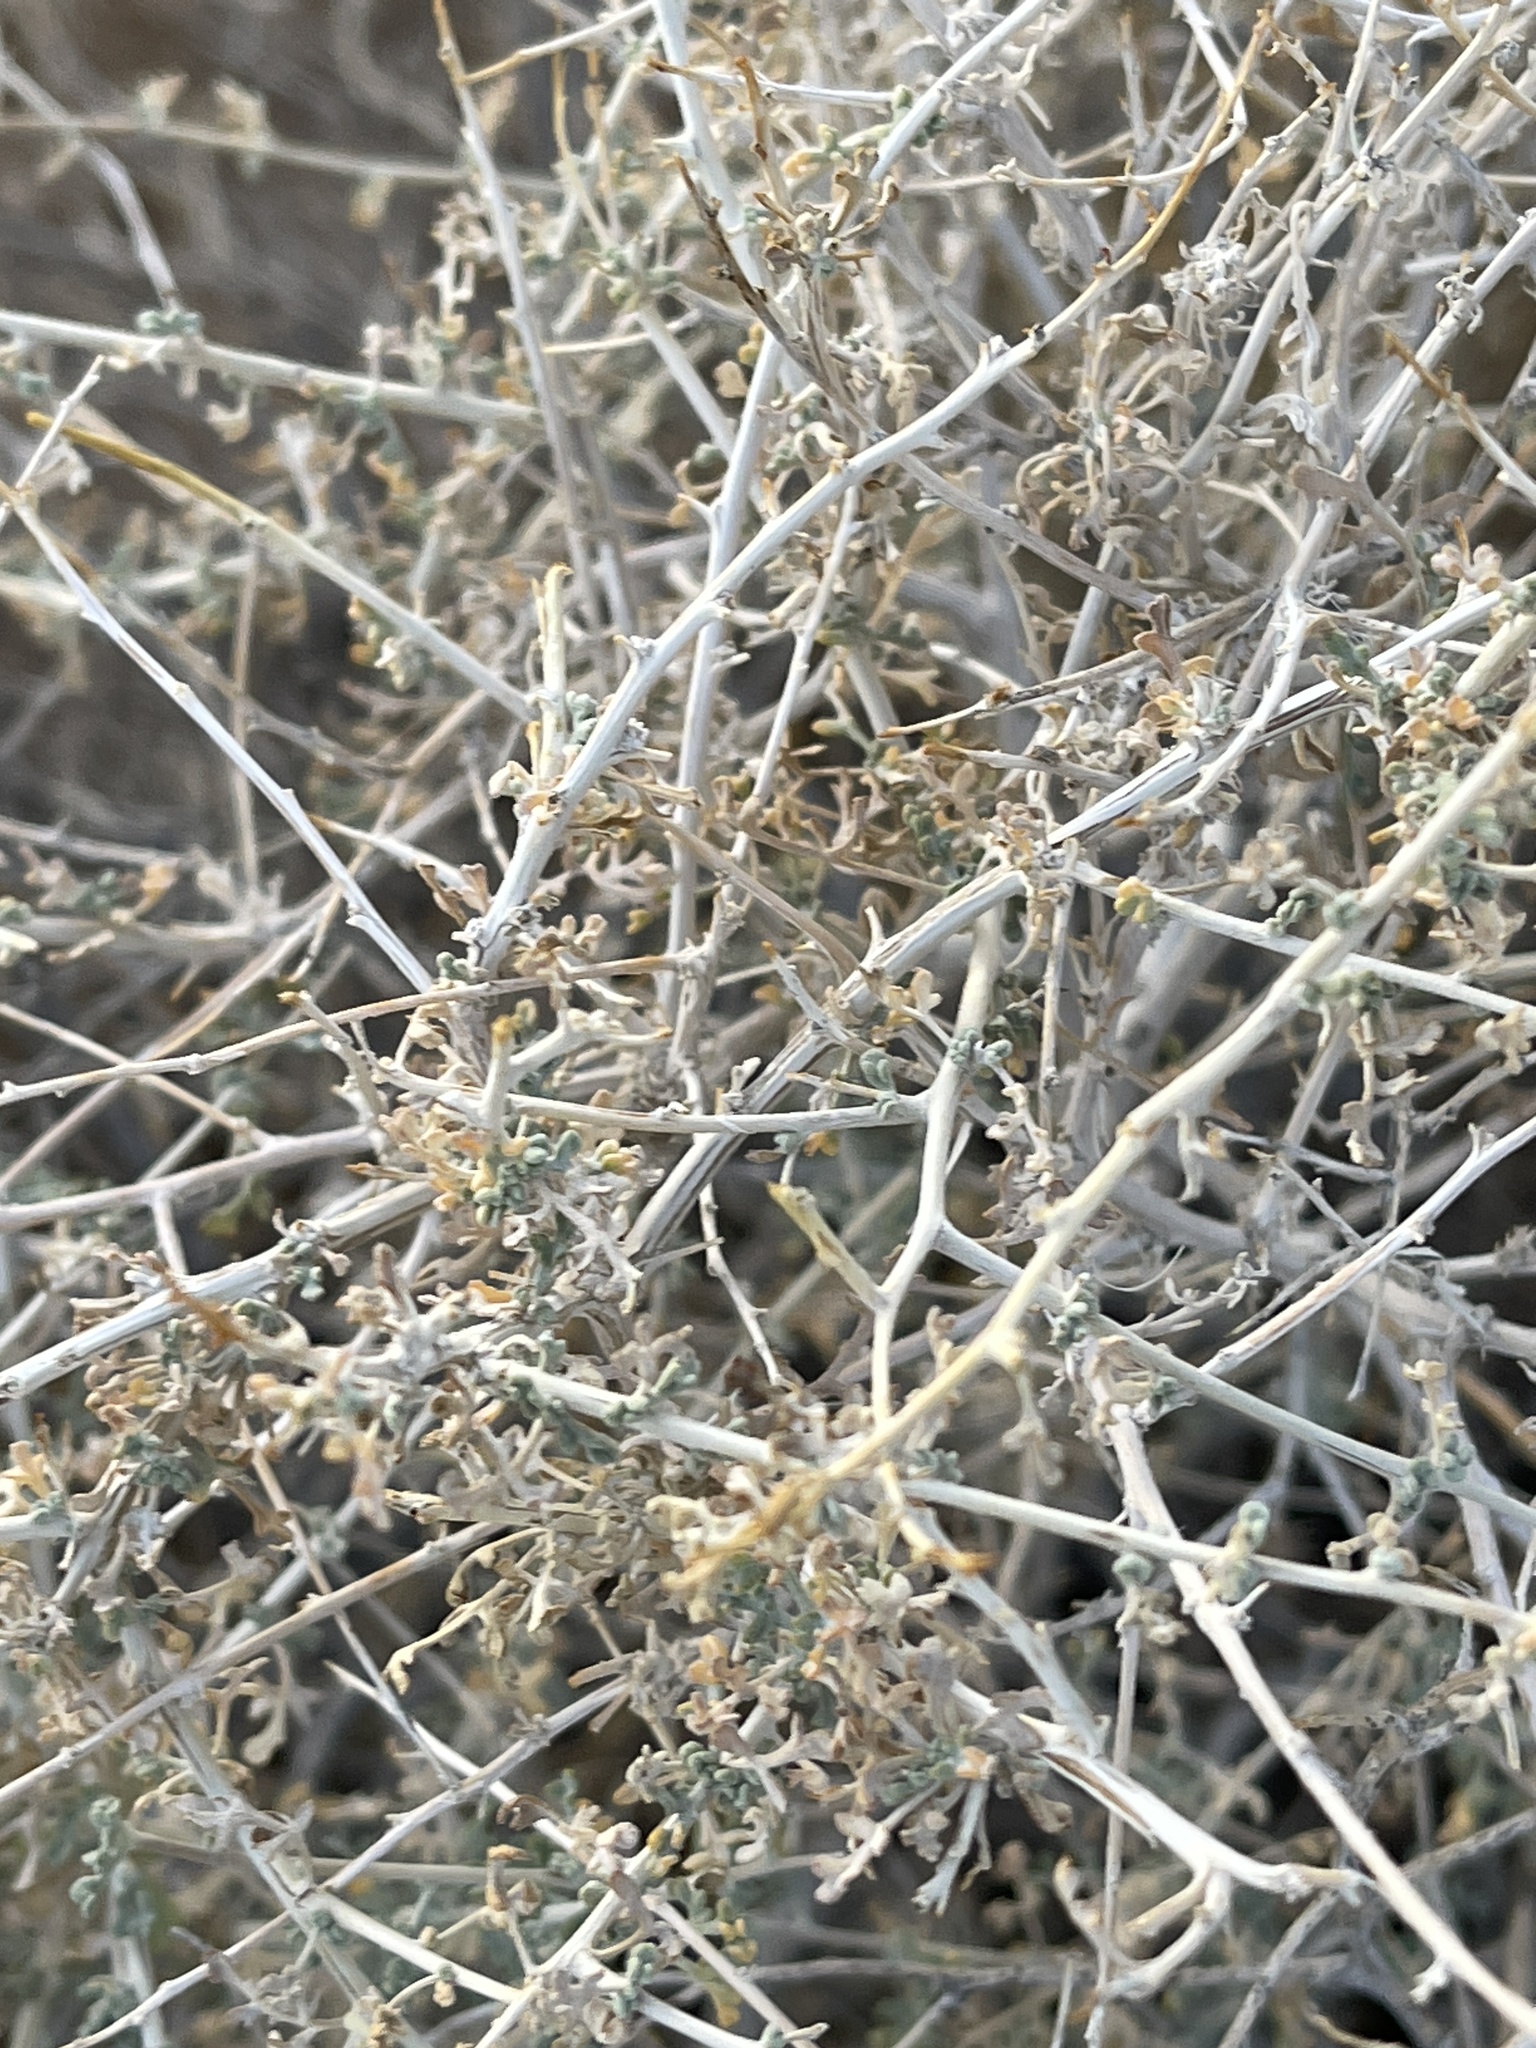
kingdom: Plantae
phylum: Tracheophyta
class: Magnoliopsida
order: Asterales
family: Asteraceae
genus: Ambrosia
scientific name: Ambrosia dumosa
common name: Bur-sage
